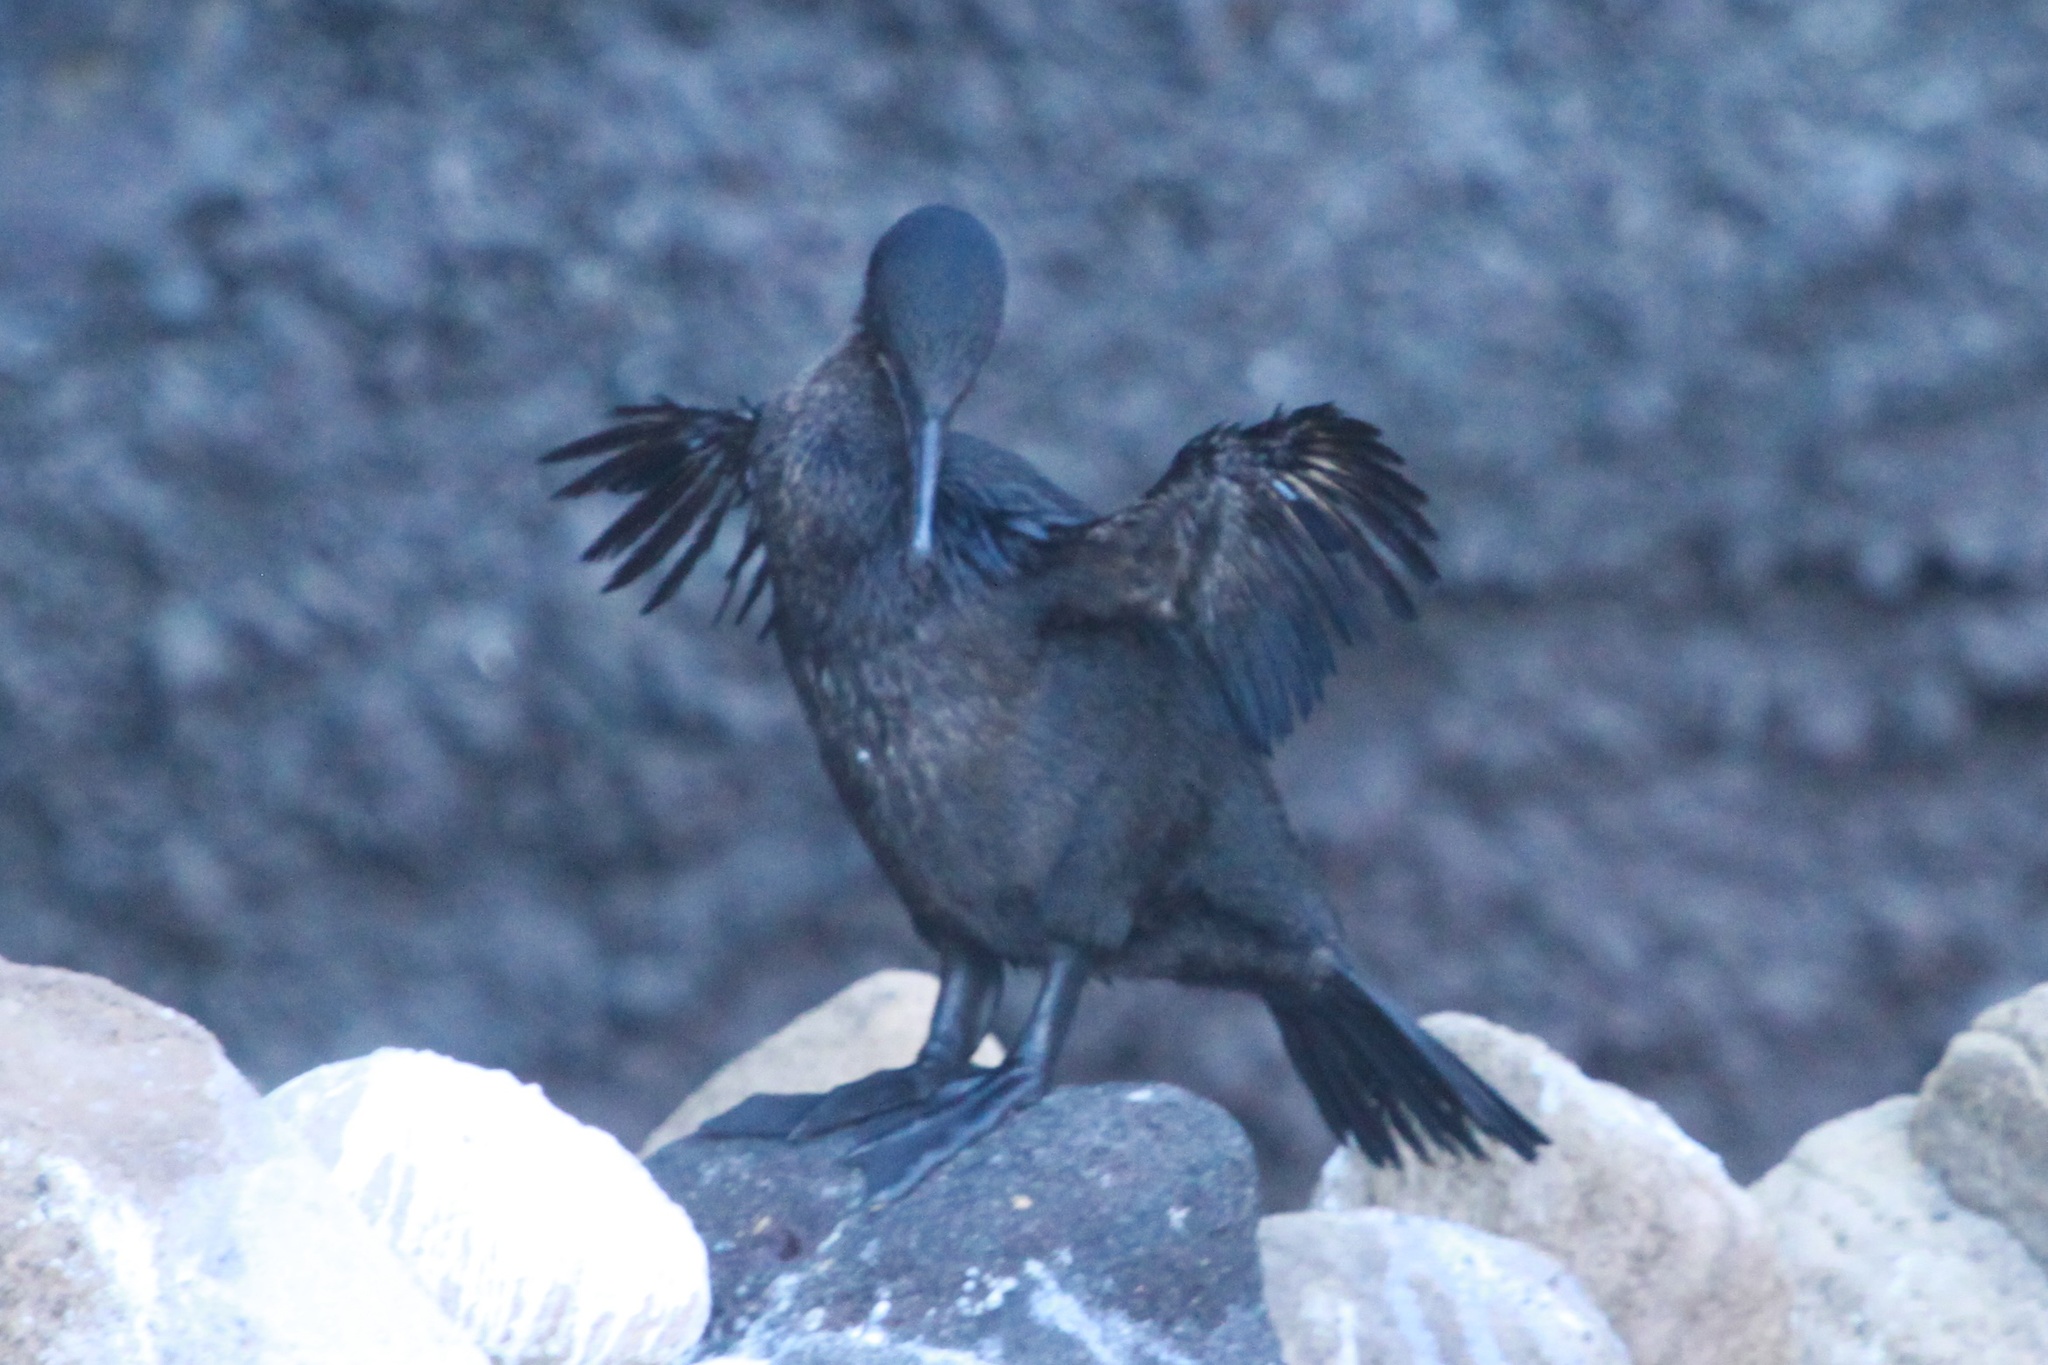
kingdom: Animalia
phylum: Chordata
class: Aves
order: Suliformes
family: Phalacrocoracidae
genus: Phalacrocorax
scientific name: Phalacrocorax harrisi
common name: Flightless cormorant
